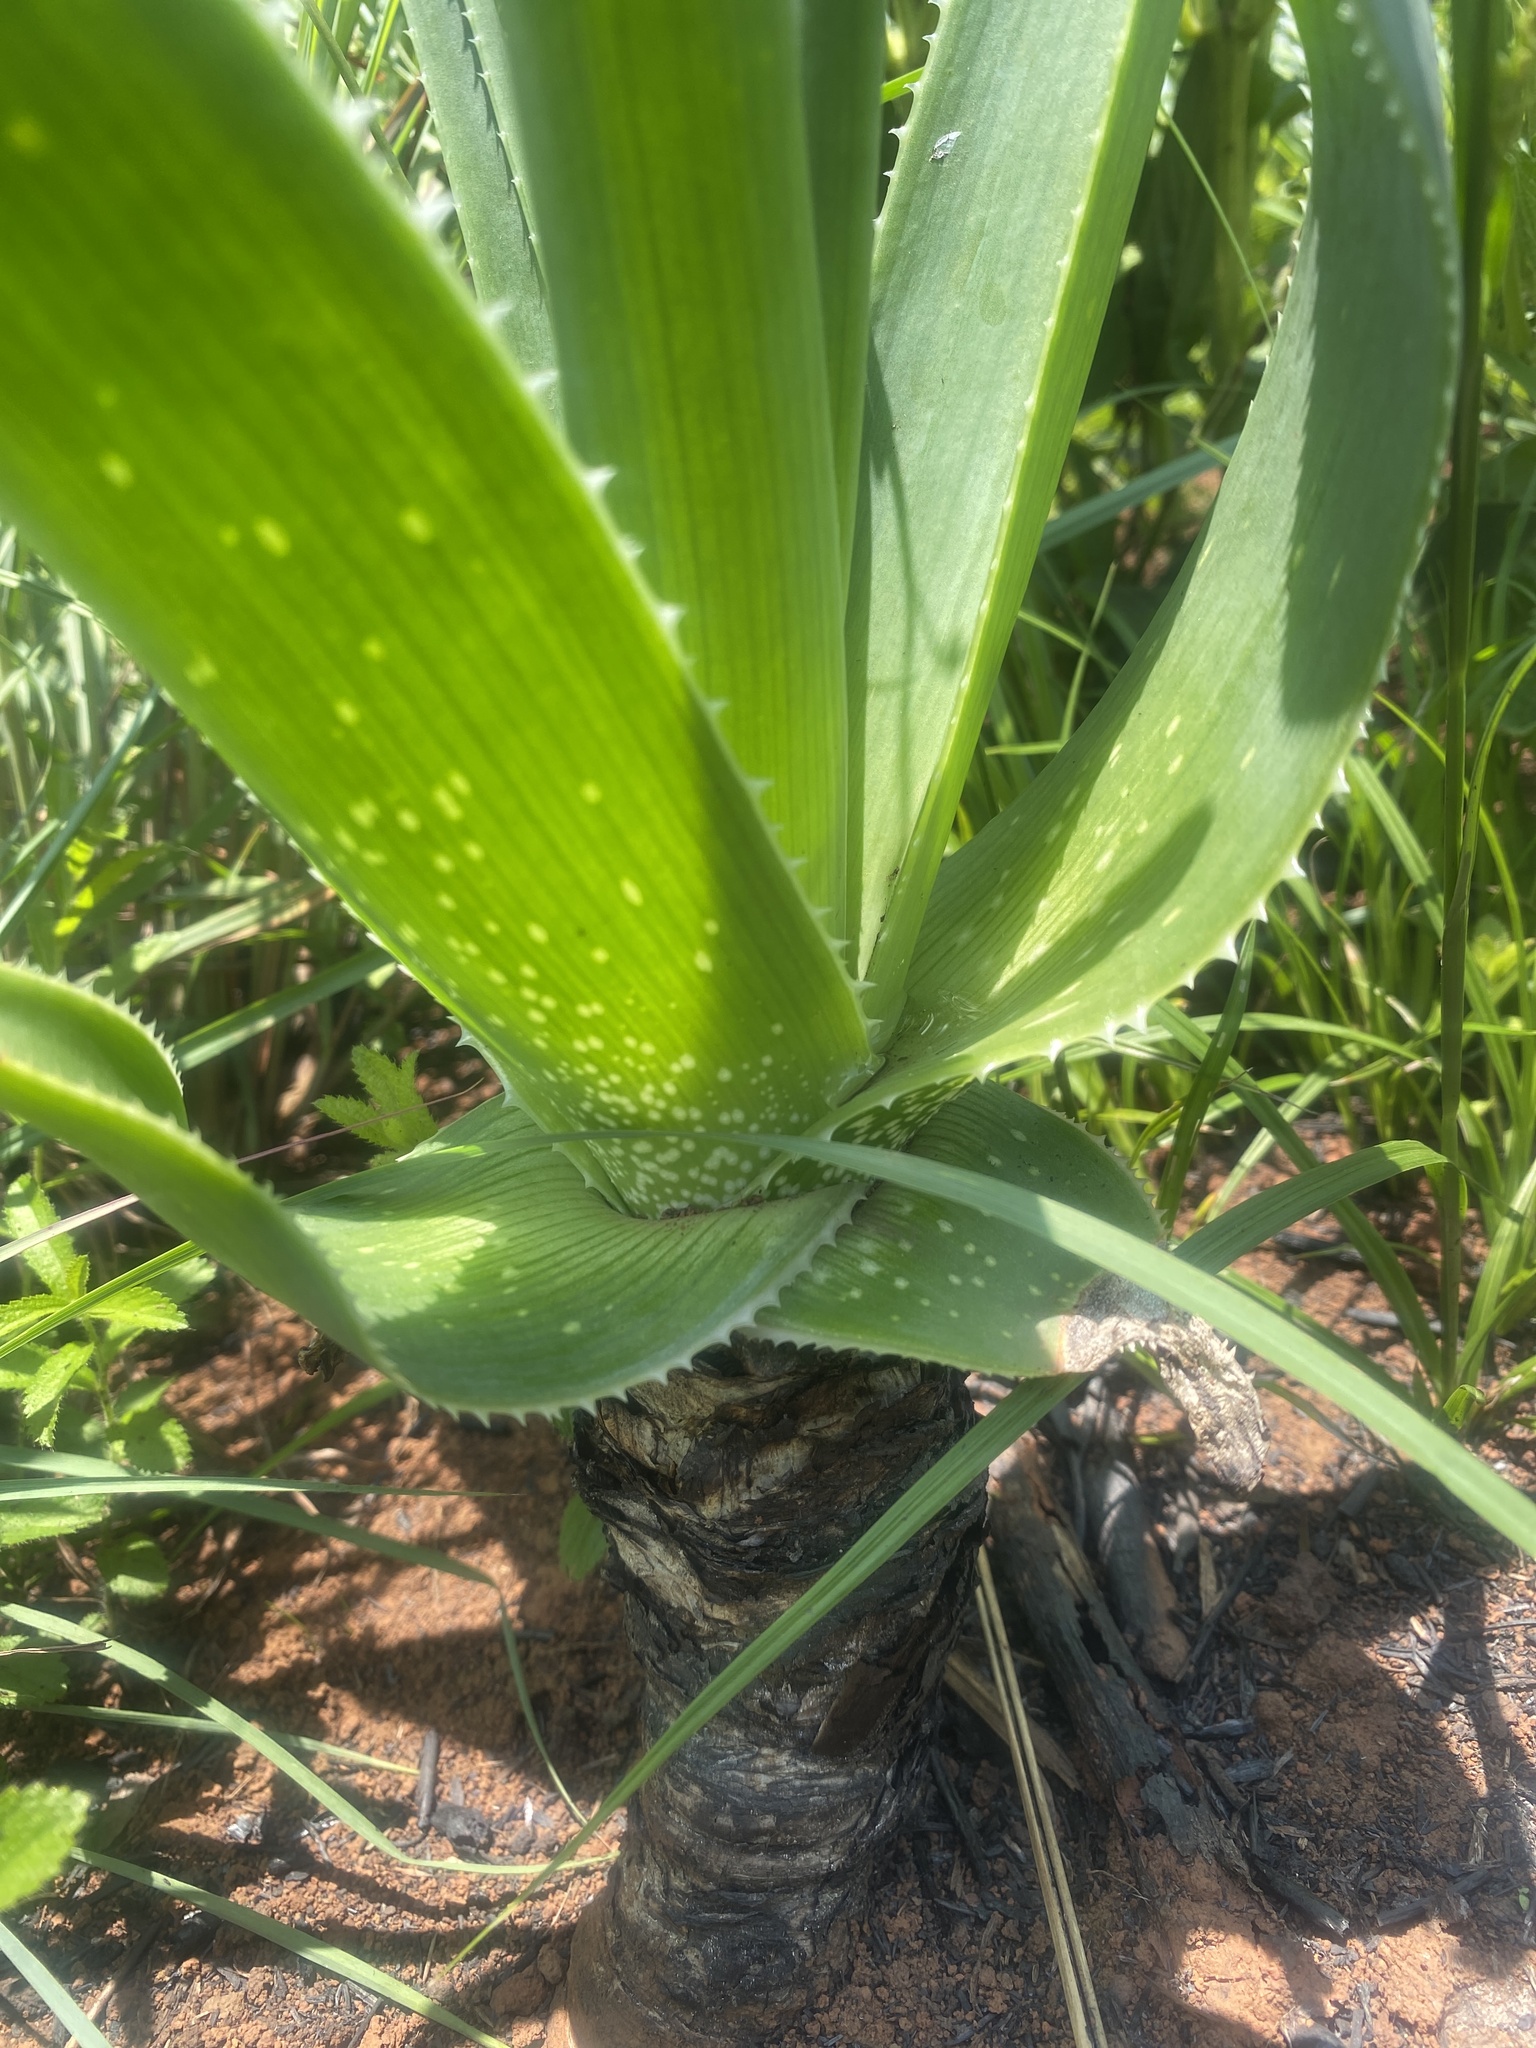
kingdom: Plantae
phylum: Tracheophyta
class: Liliopsida
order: Asparagales
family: Asphodelaceae
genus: Aloe
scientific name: Aloe boylei
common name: Broad-leaved grass aloe
